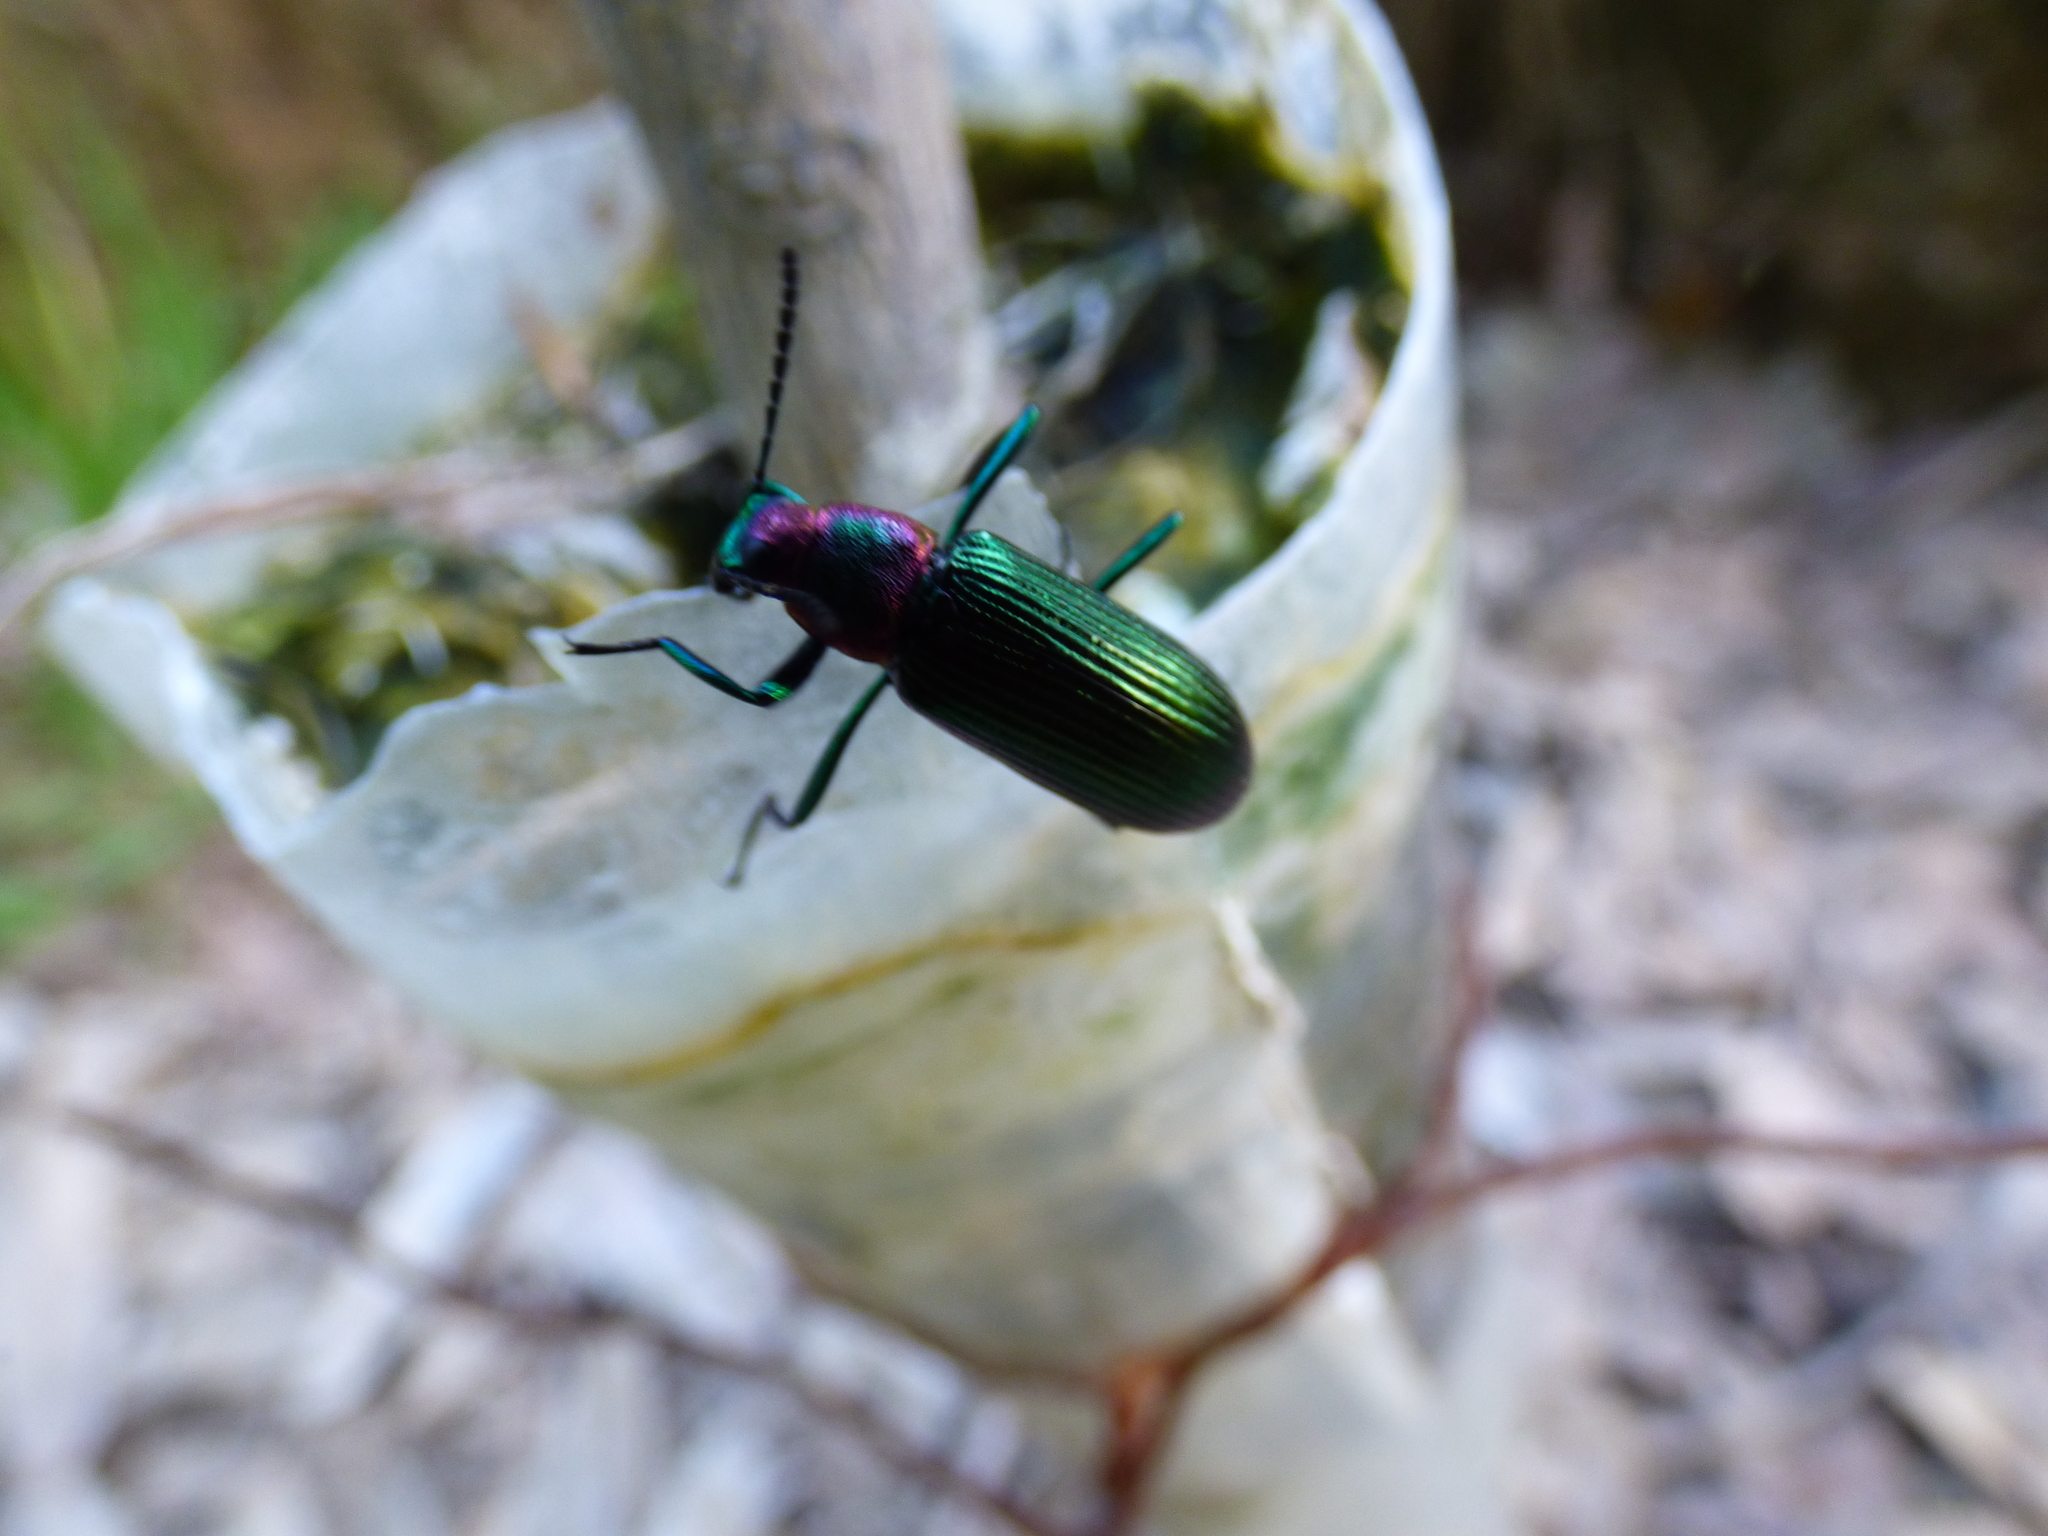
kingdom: Animalia
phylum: Arthropoda
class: Insecta
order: Coleoptera
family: Tenebrionidae
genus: Strongylium
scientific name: Strongylium auratum
